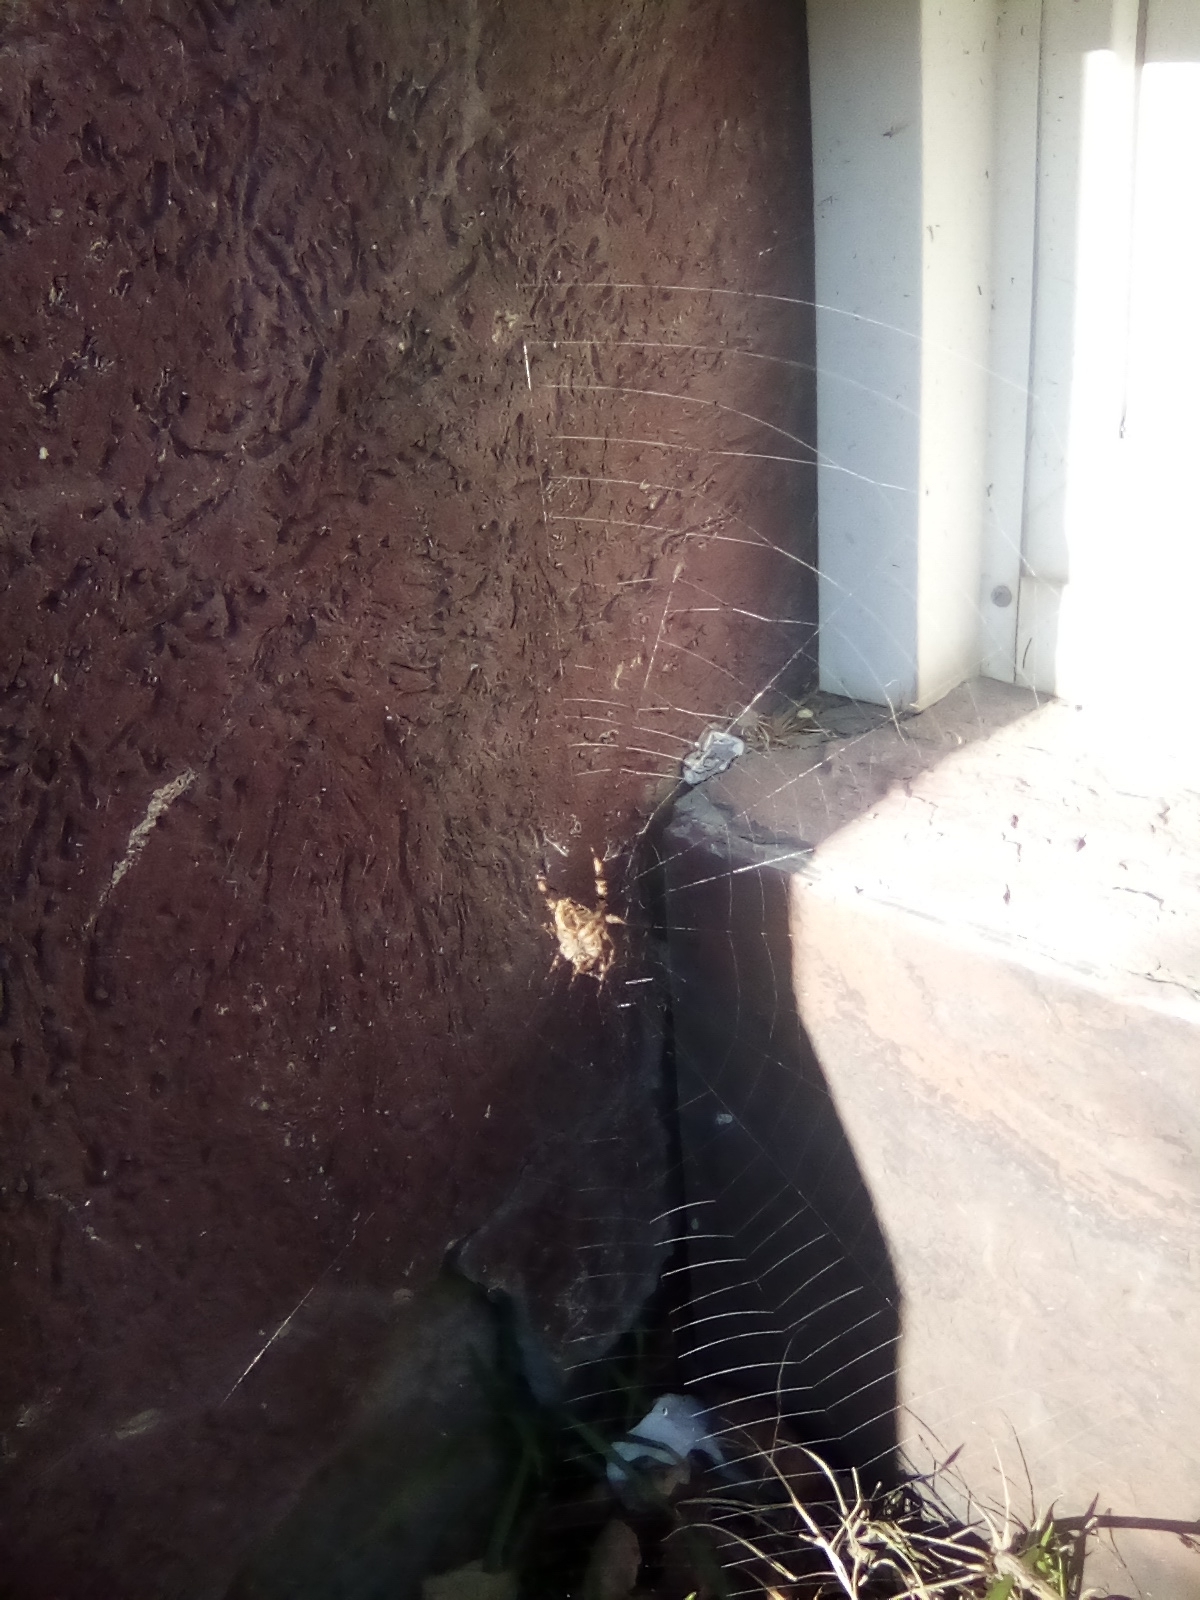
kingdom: Animalia
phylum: Arthropoda
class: Arachnida
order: Araneae
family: Araneidae
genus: Araneus
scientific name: Araneus diadematus
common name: Cross orbweaver
